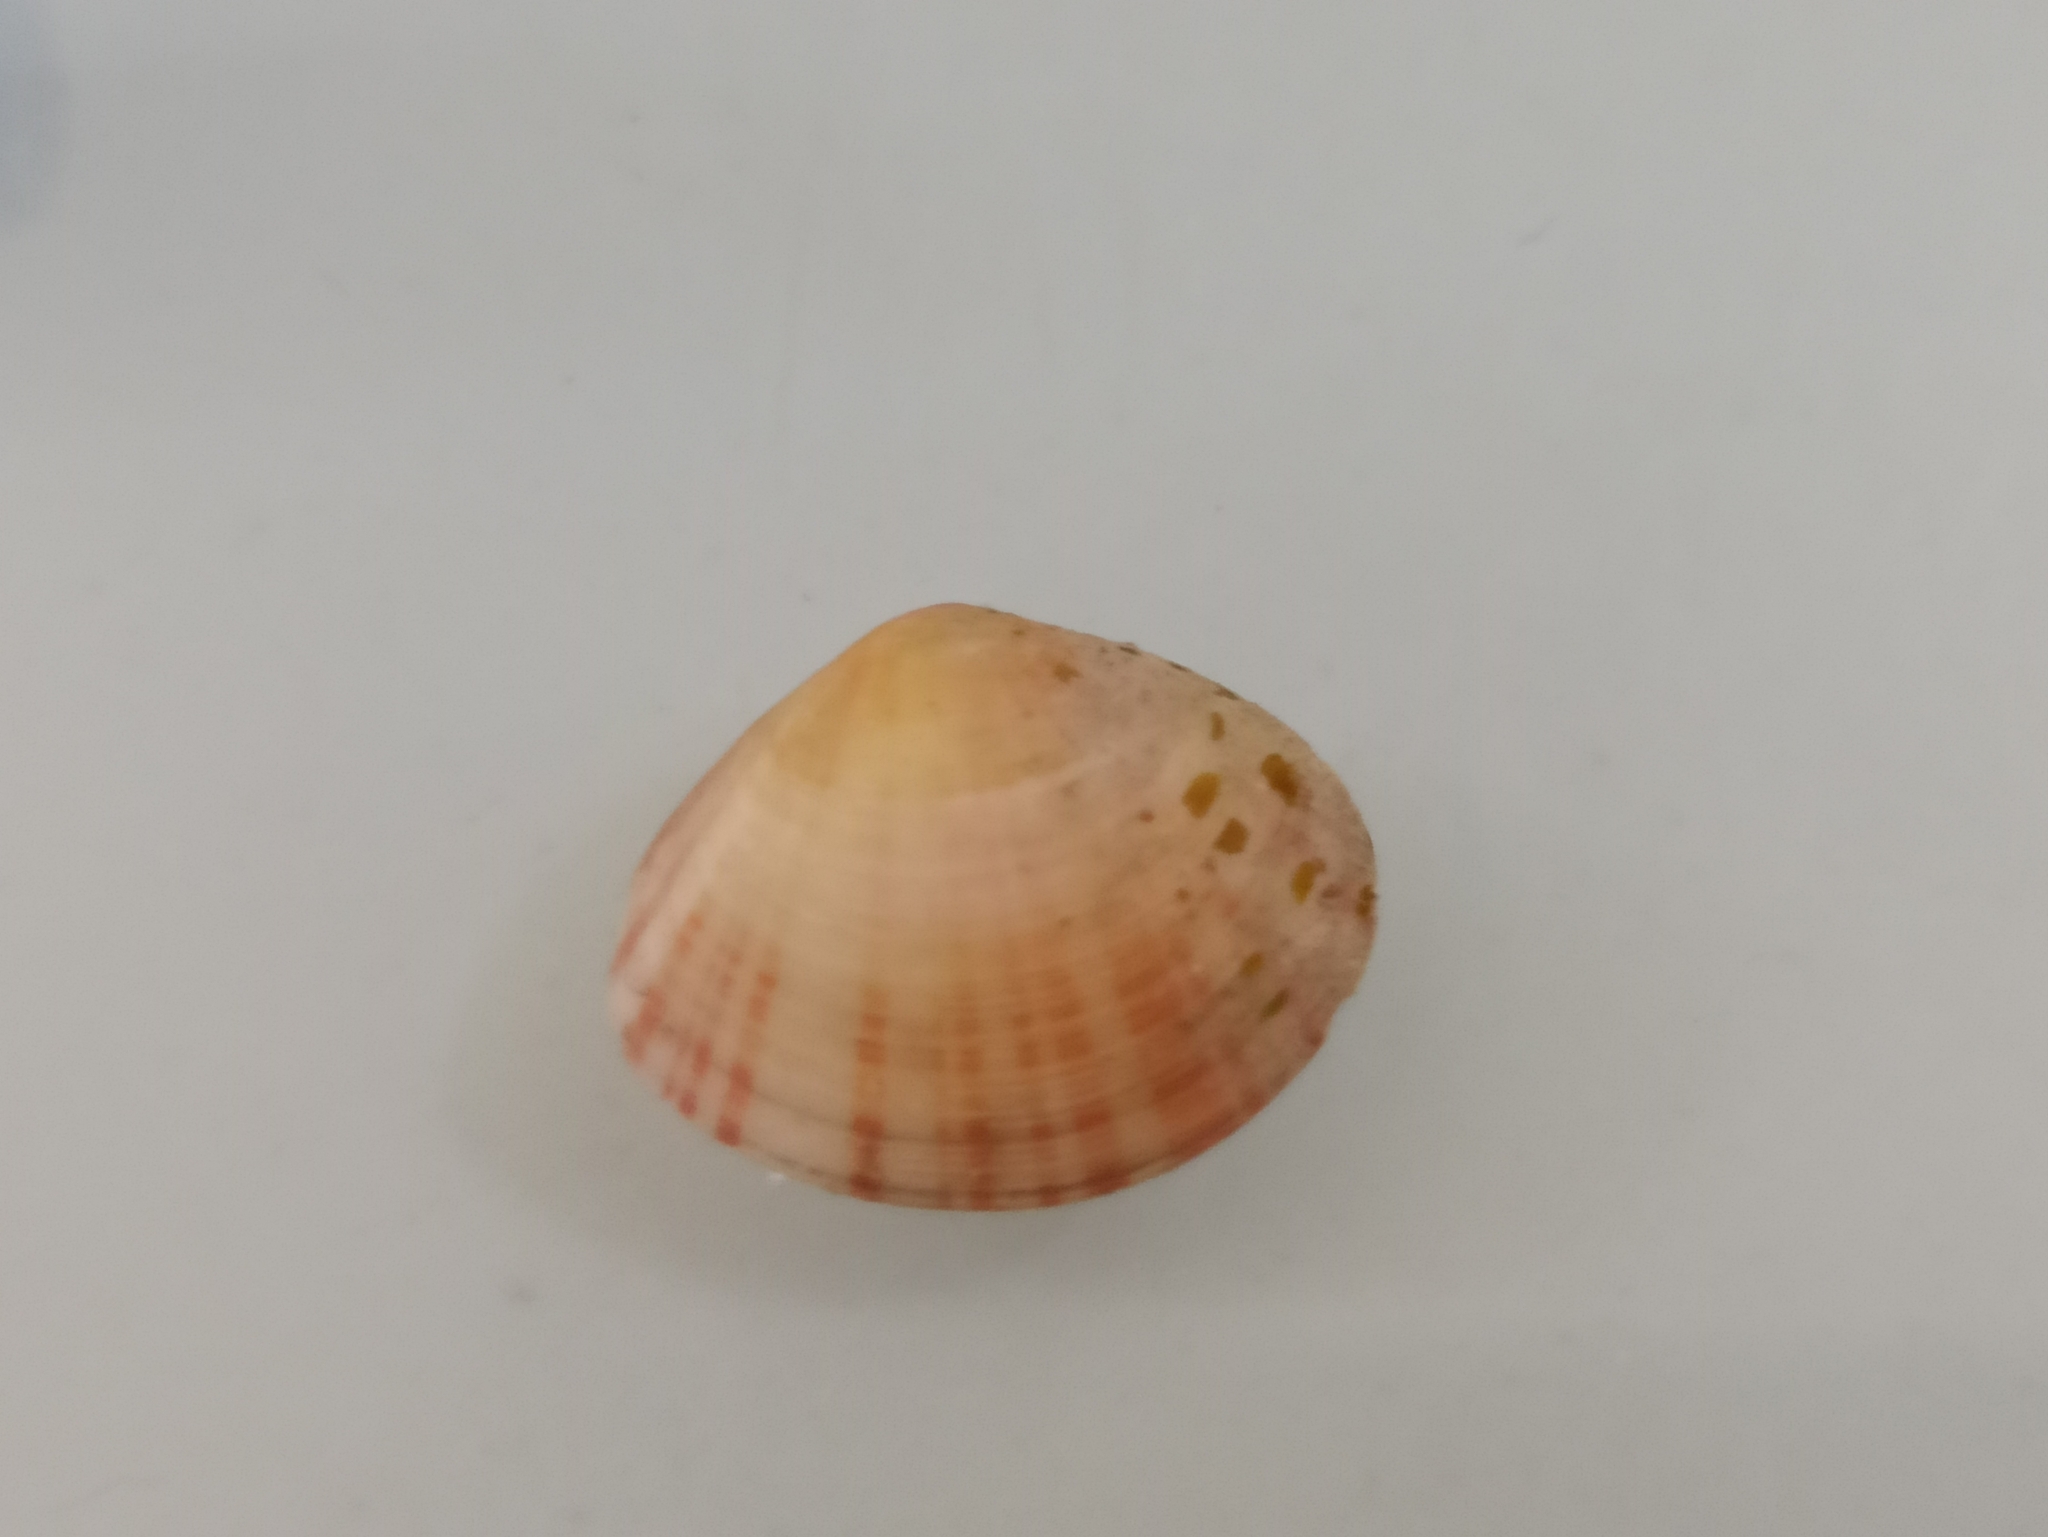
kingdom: Animalia
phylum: Mollusca
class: Bivalvia
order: Cardiida
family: Tellinidae
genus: Arcopella
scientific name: Arcopella balaustina
